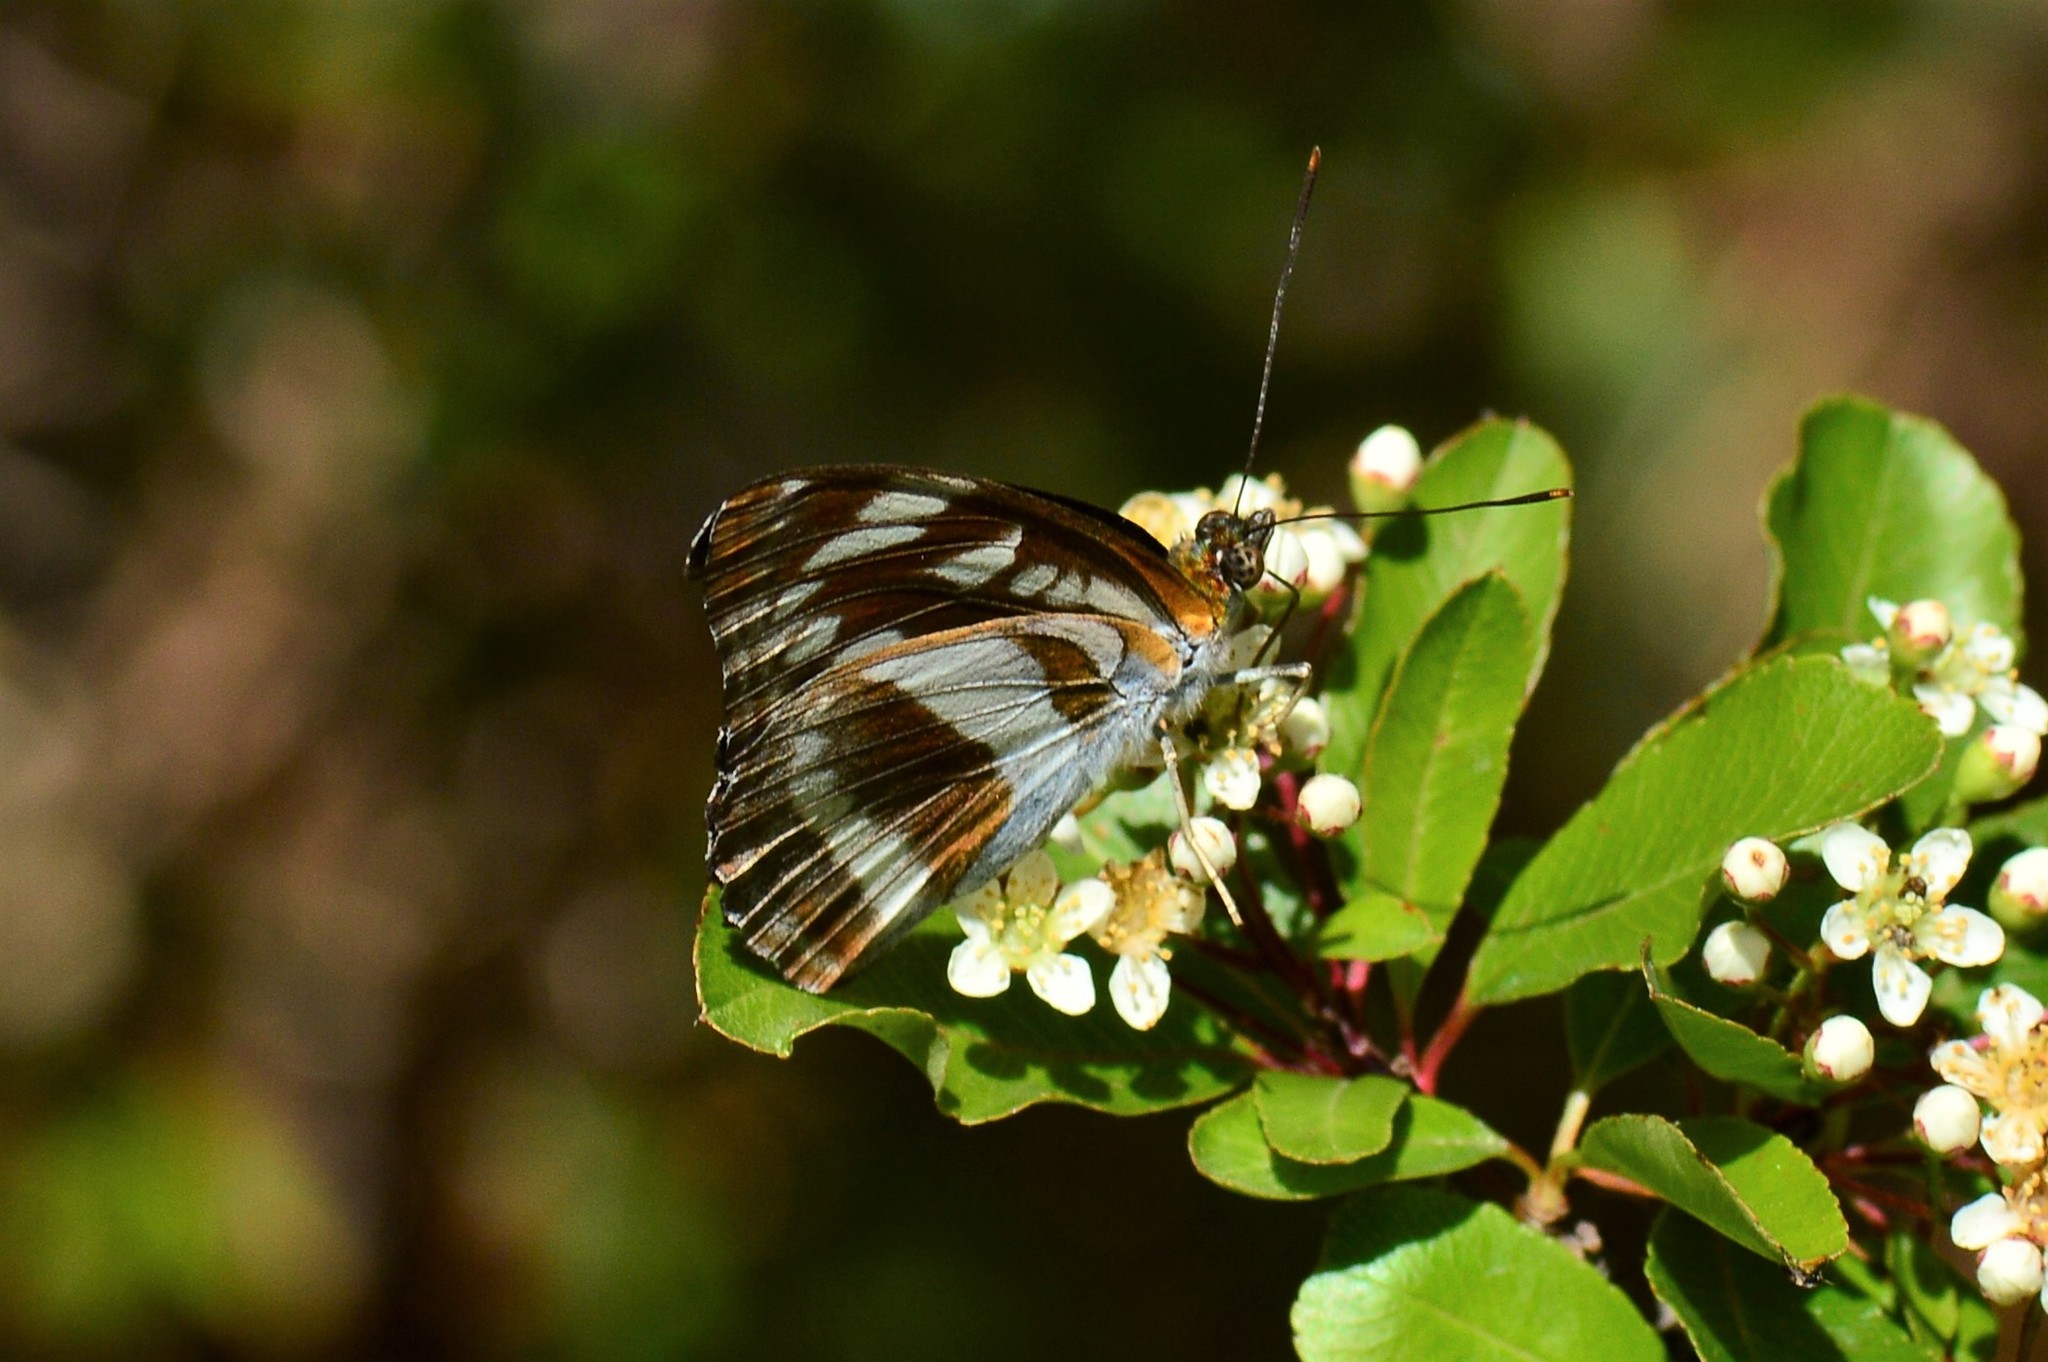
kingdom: Animalia
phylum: Arthropoda
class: Insecta
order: Lepidoptera
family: Nymphalidae
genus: Parathyma
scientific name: Parathyma opalina
